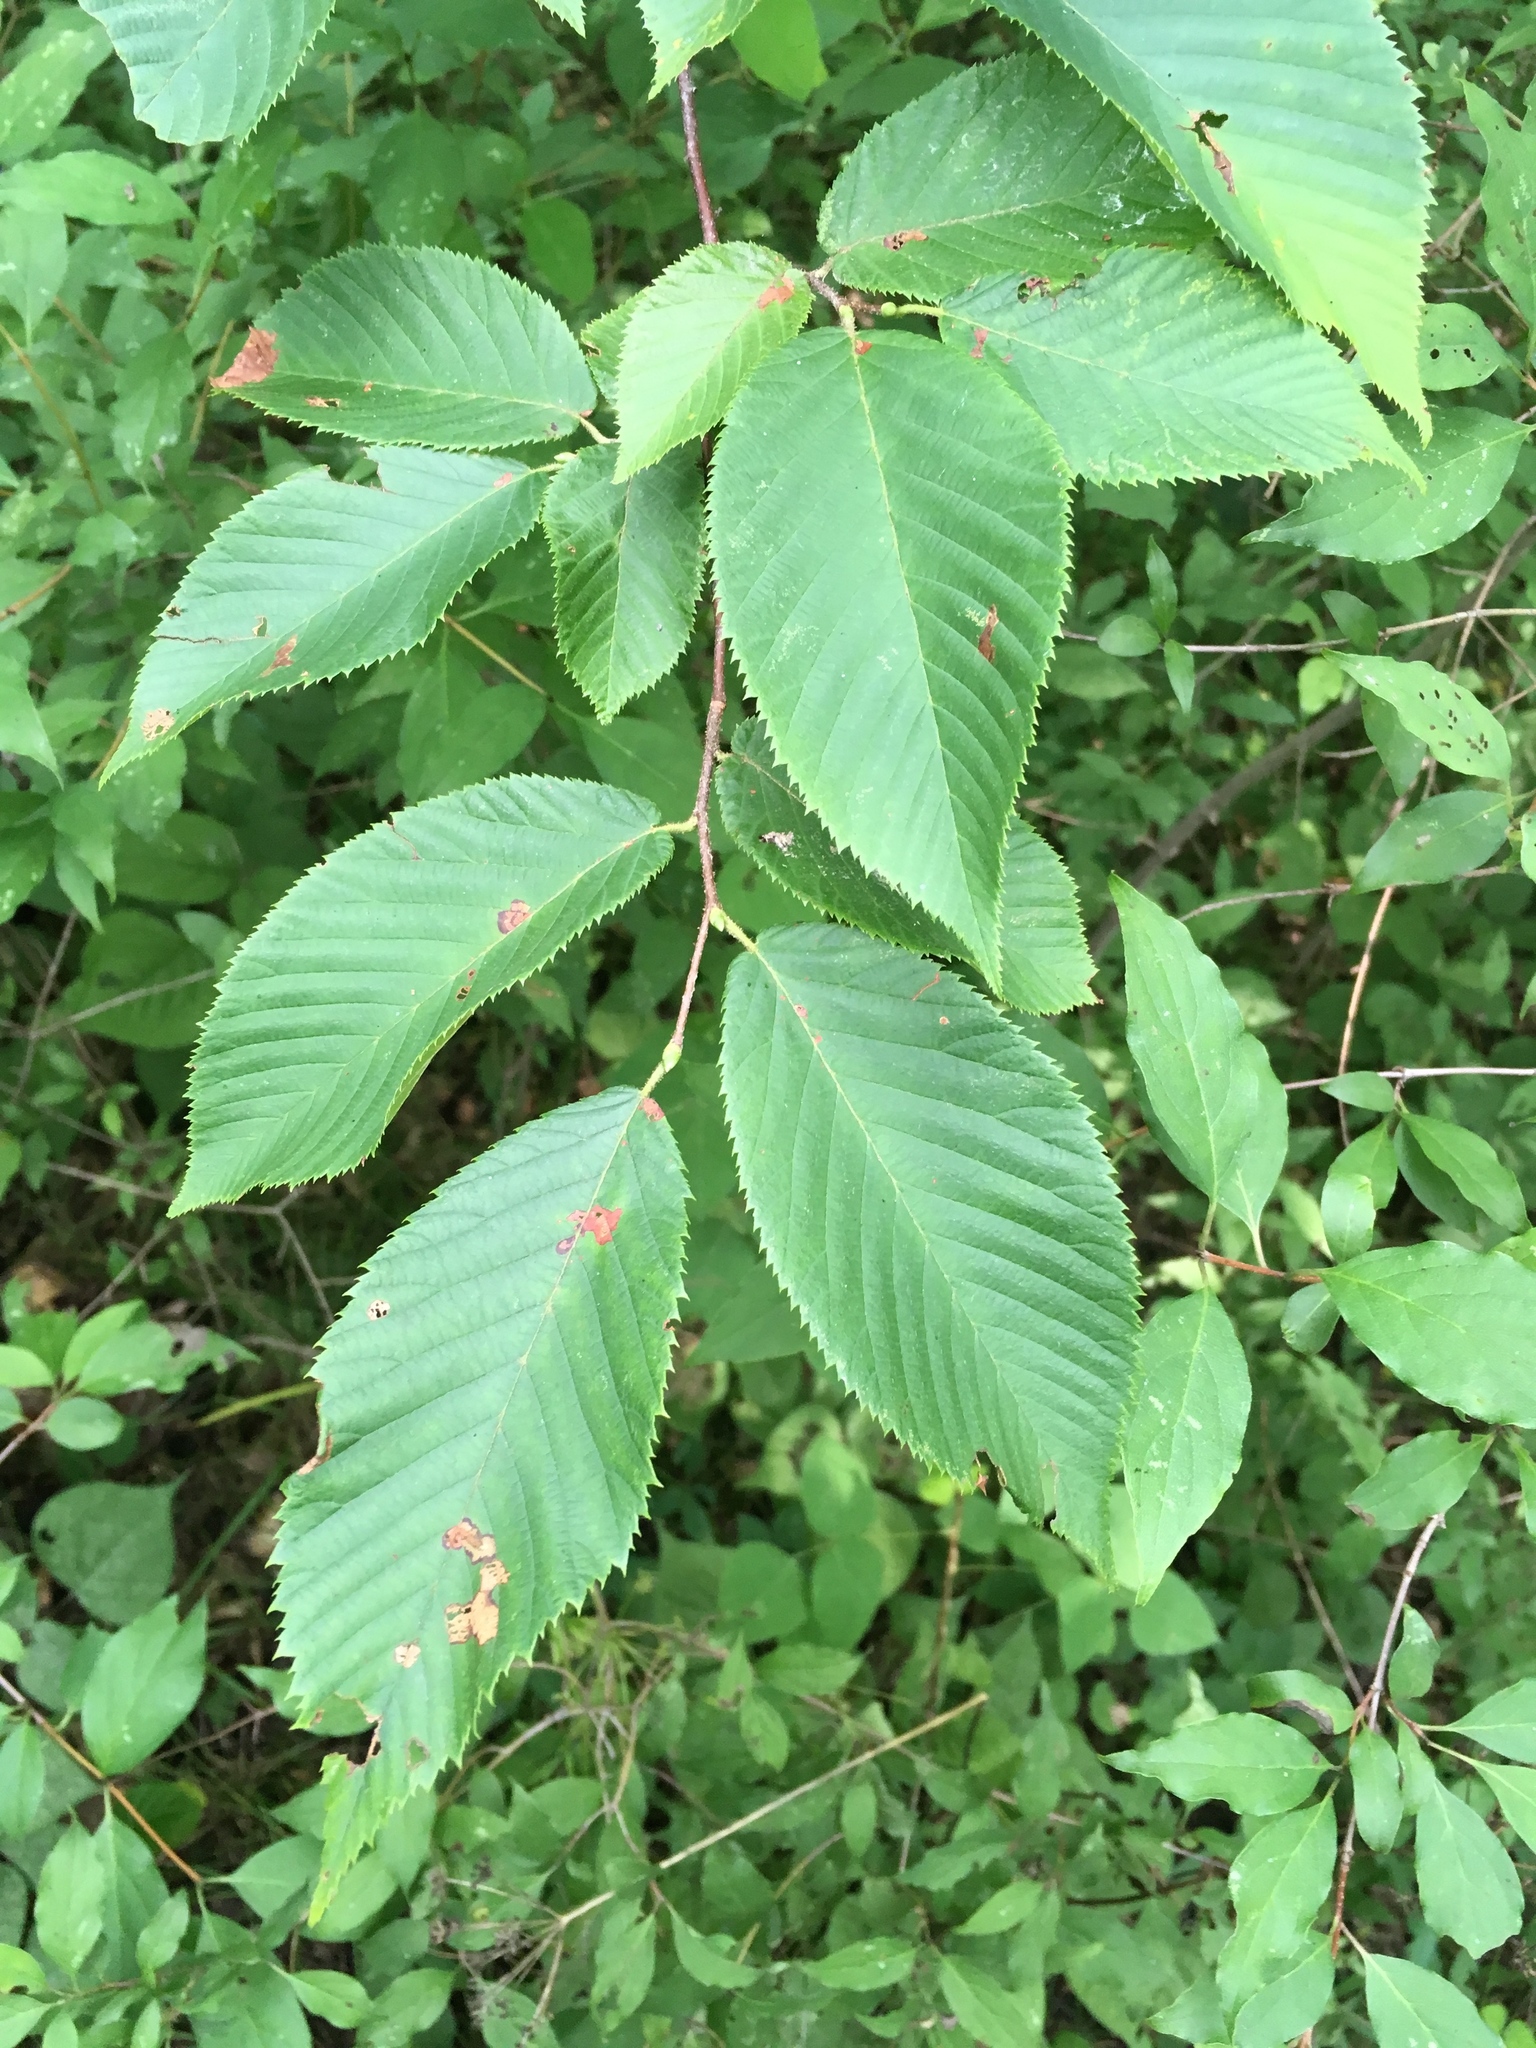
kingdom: Plantae
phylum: Tracheophyta
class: Magnoliopsida
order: Fagales
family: Betulaceae
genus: Ostrya
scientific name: Ostrya virginiana
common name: Ironwood
